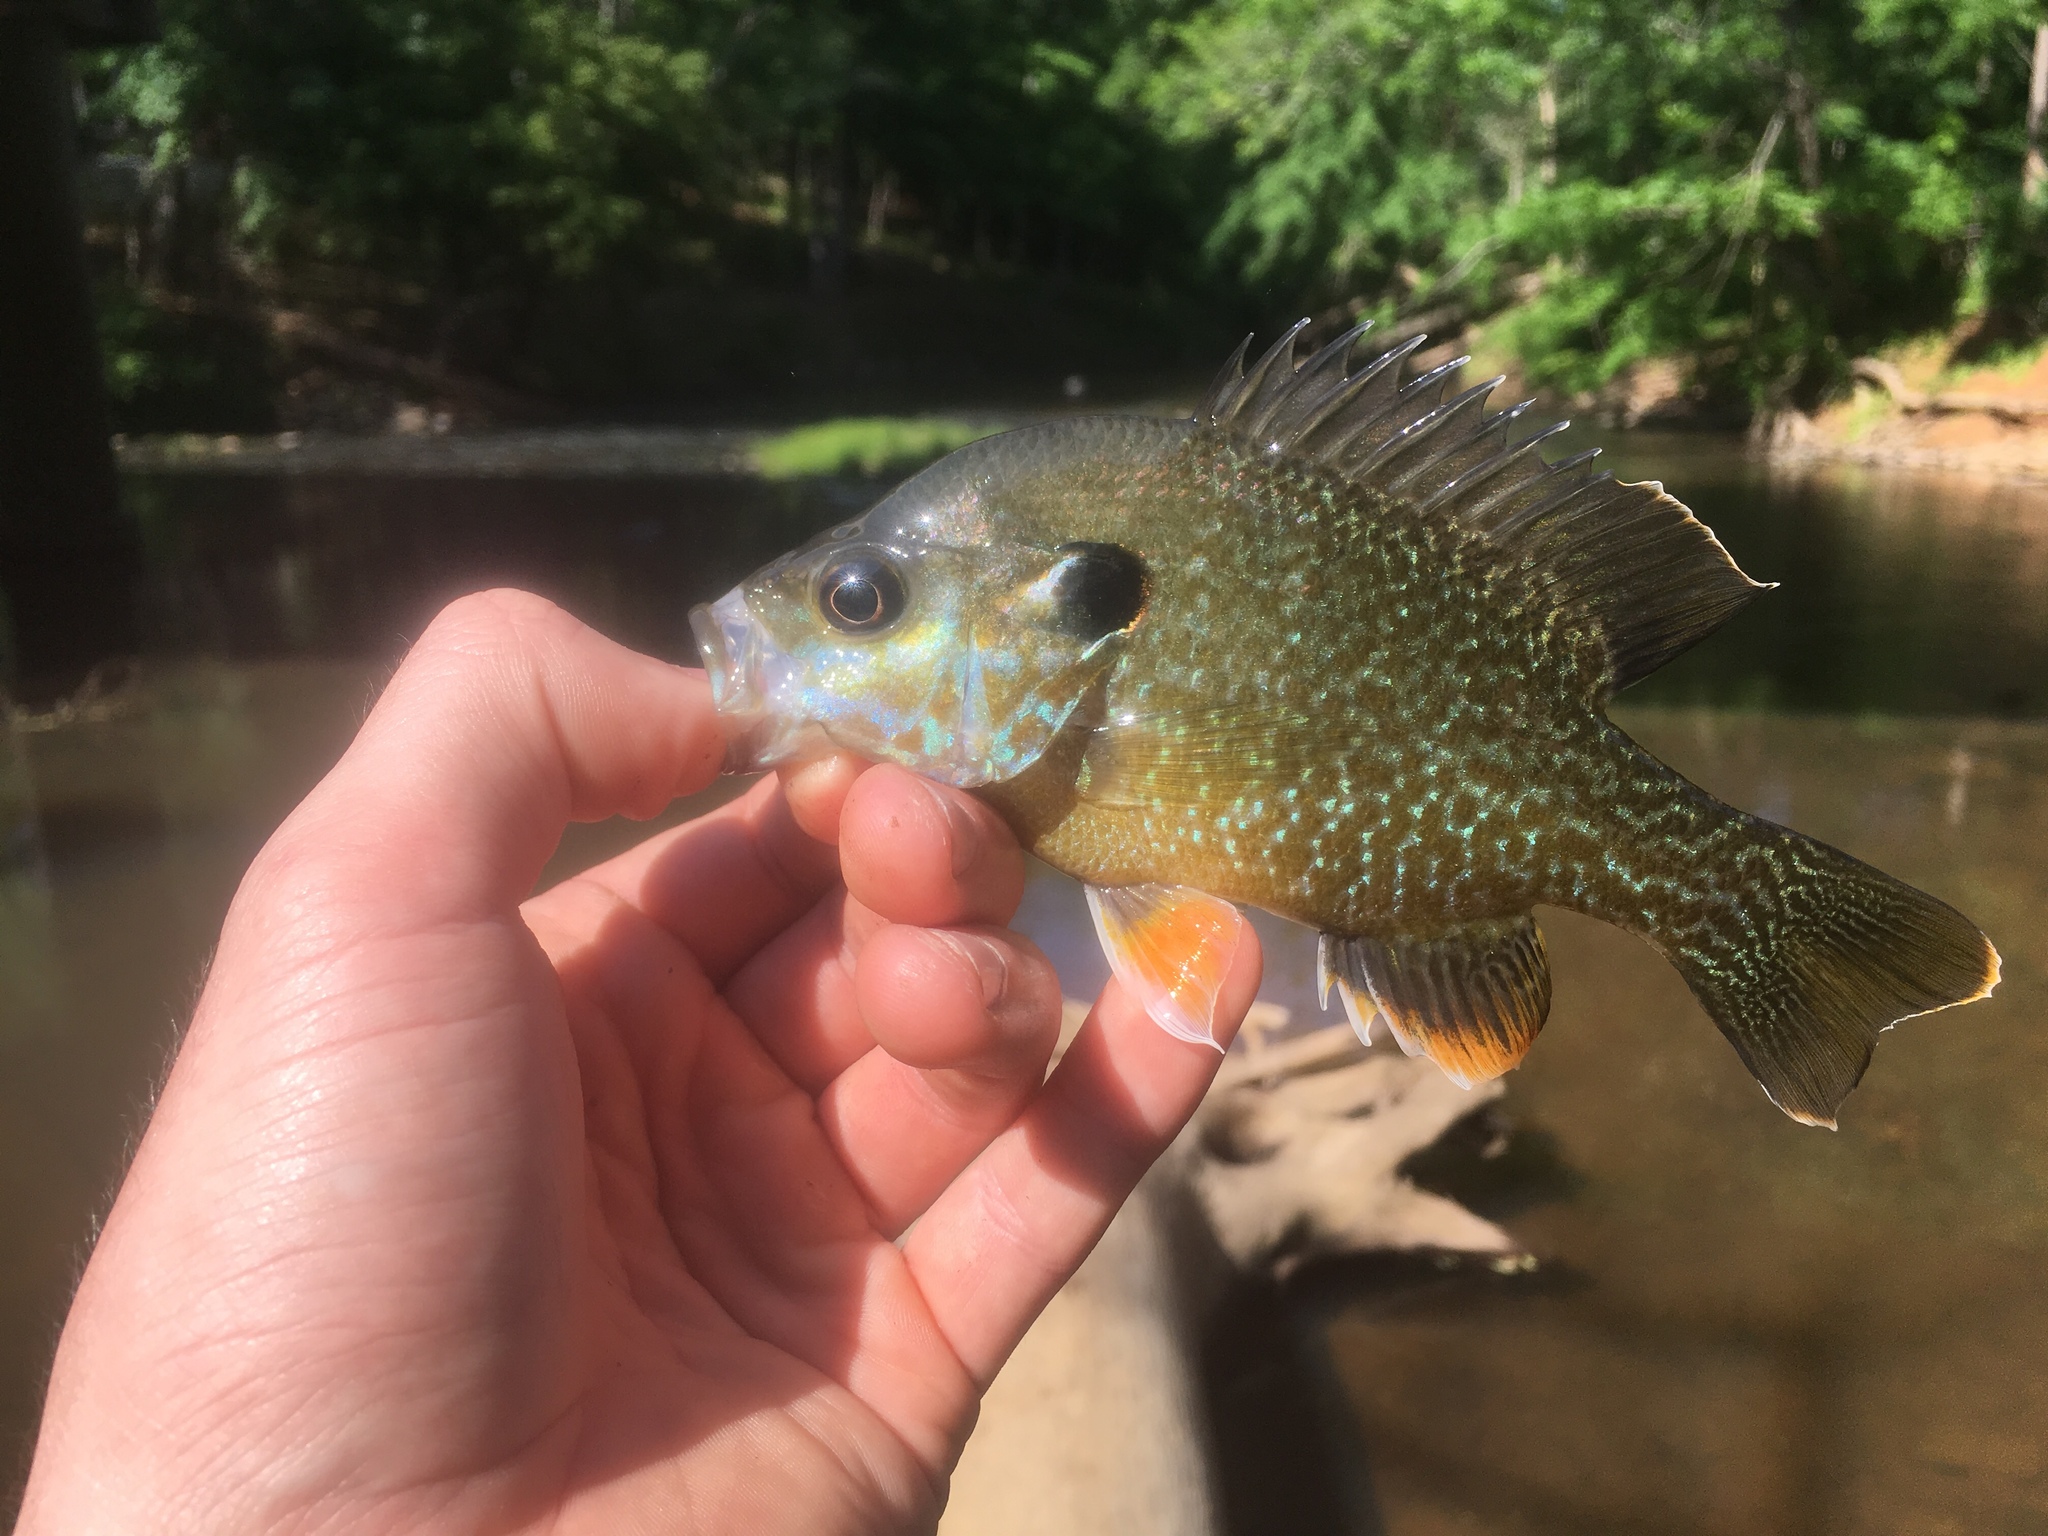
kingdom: Animalia
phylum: Chordata
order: Perciformes
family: Centrarchidae
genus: Lepomis
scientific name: Lepomis
